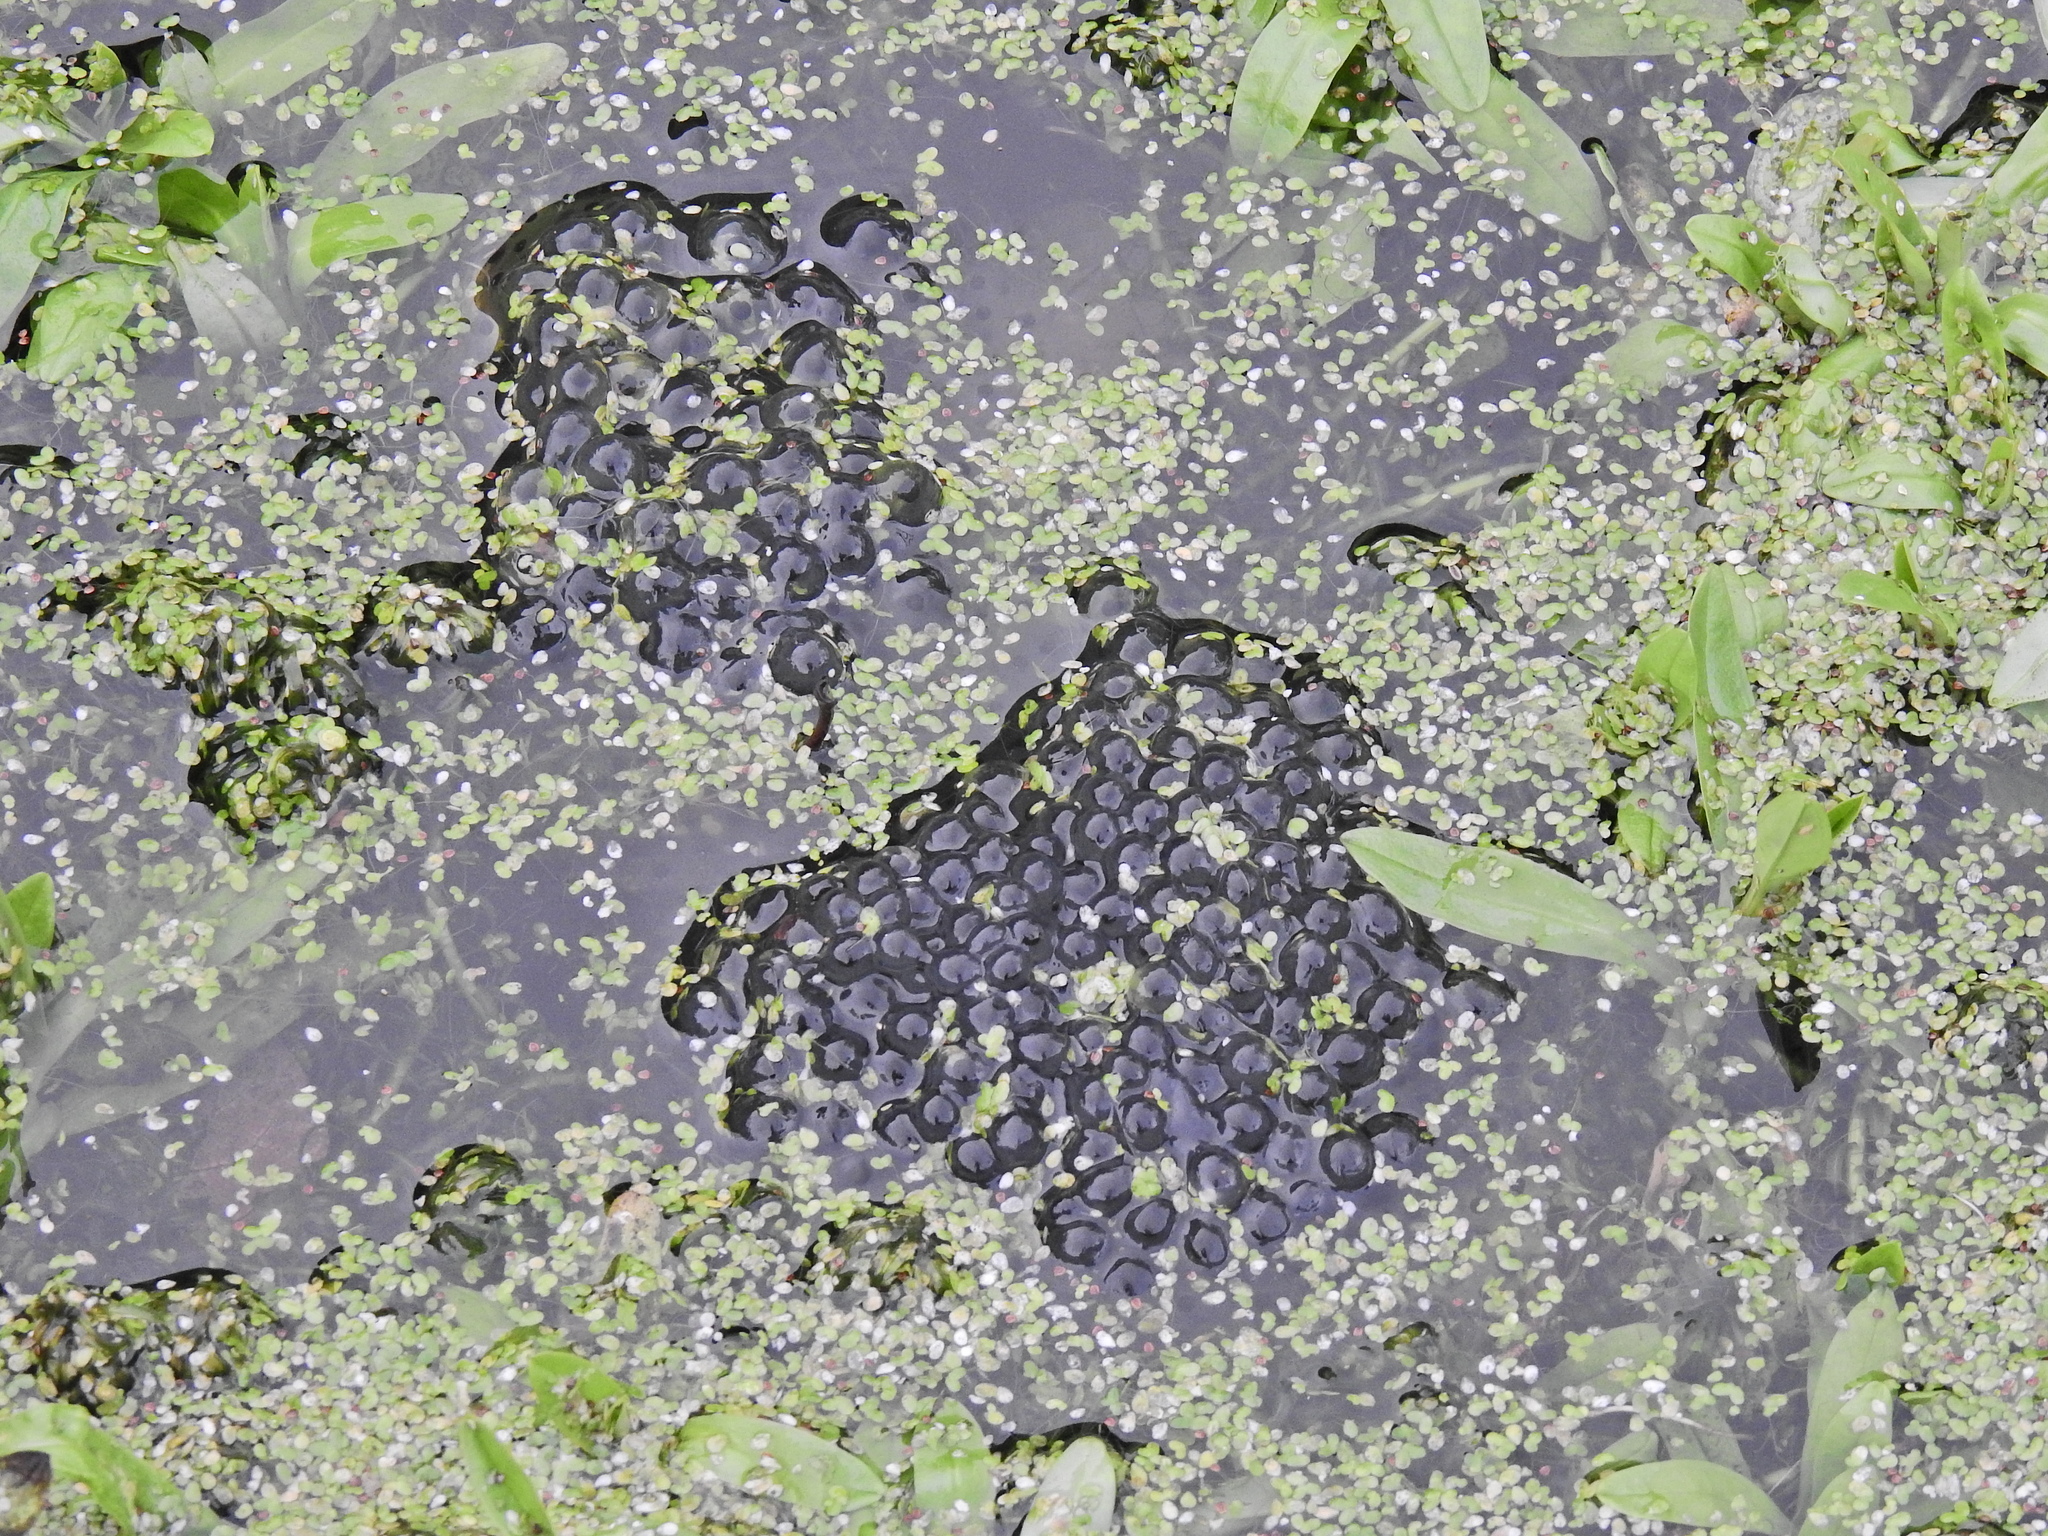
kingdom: Animalia
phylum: Chordata
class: Amphibia
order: Anura
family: Ranidae
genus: Rana
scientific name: Rana temporaria
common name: Common frog
